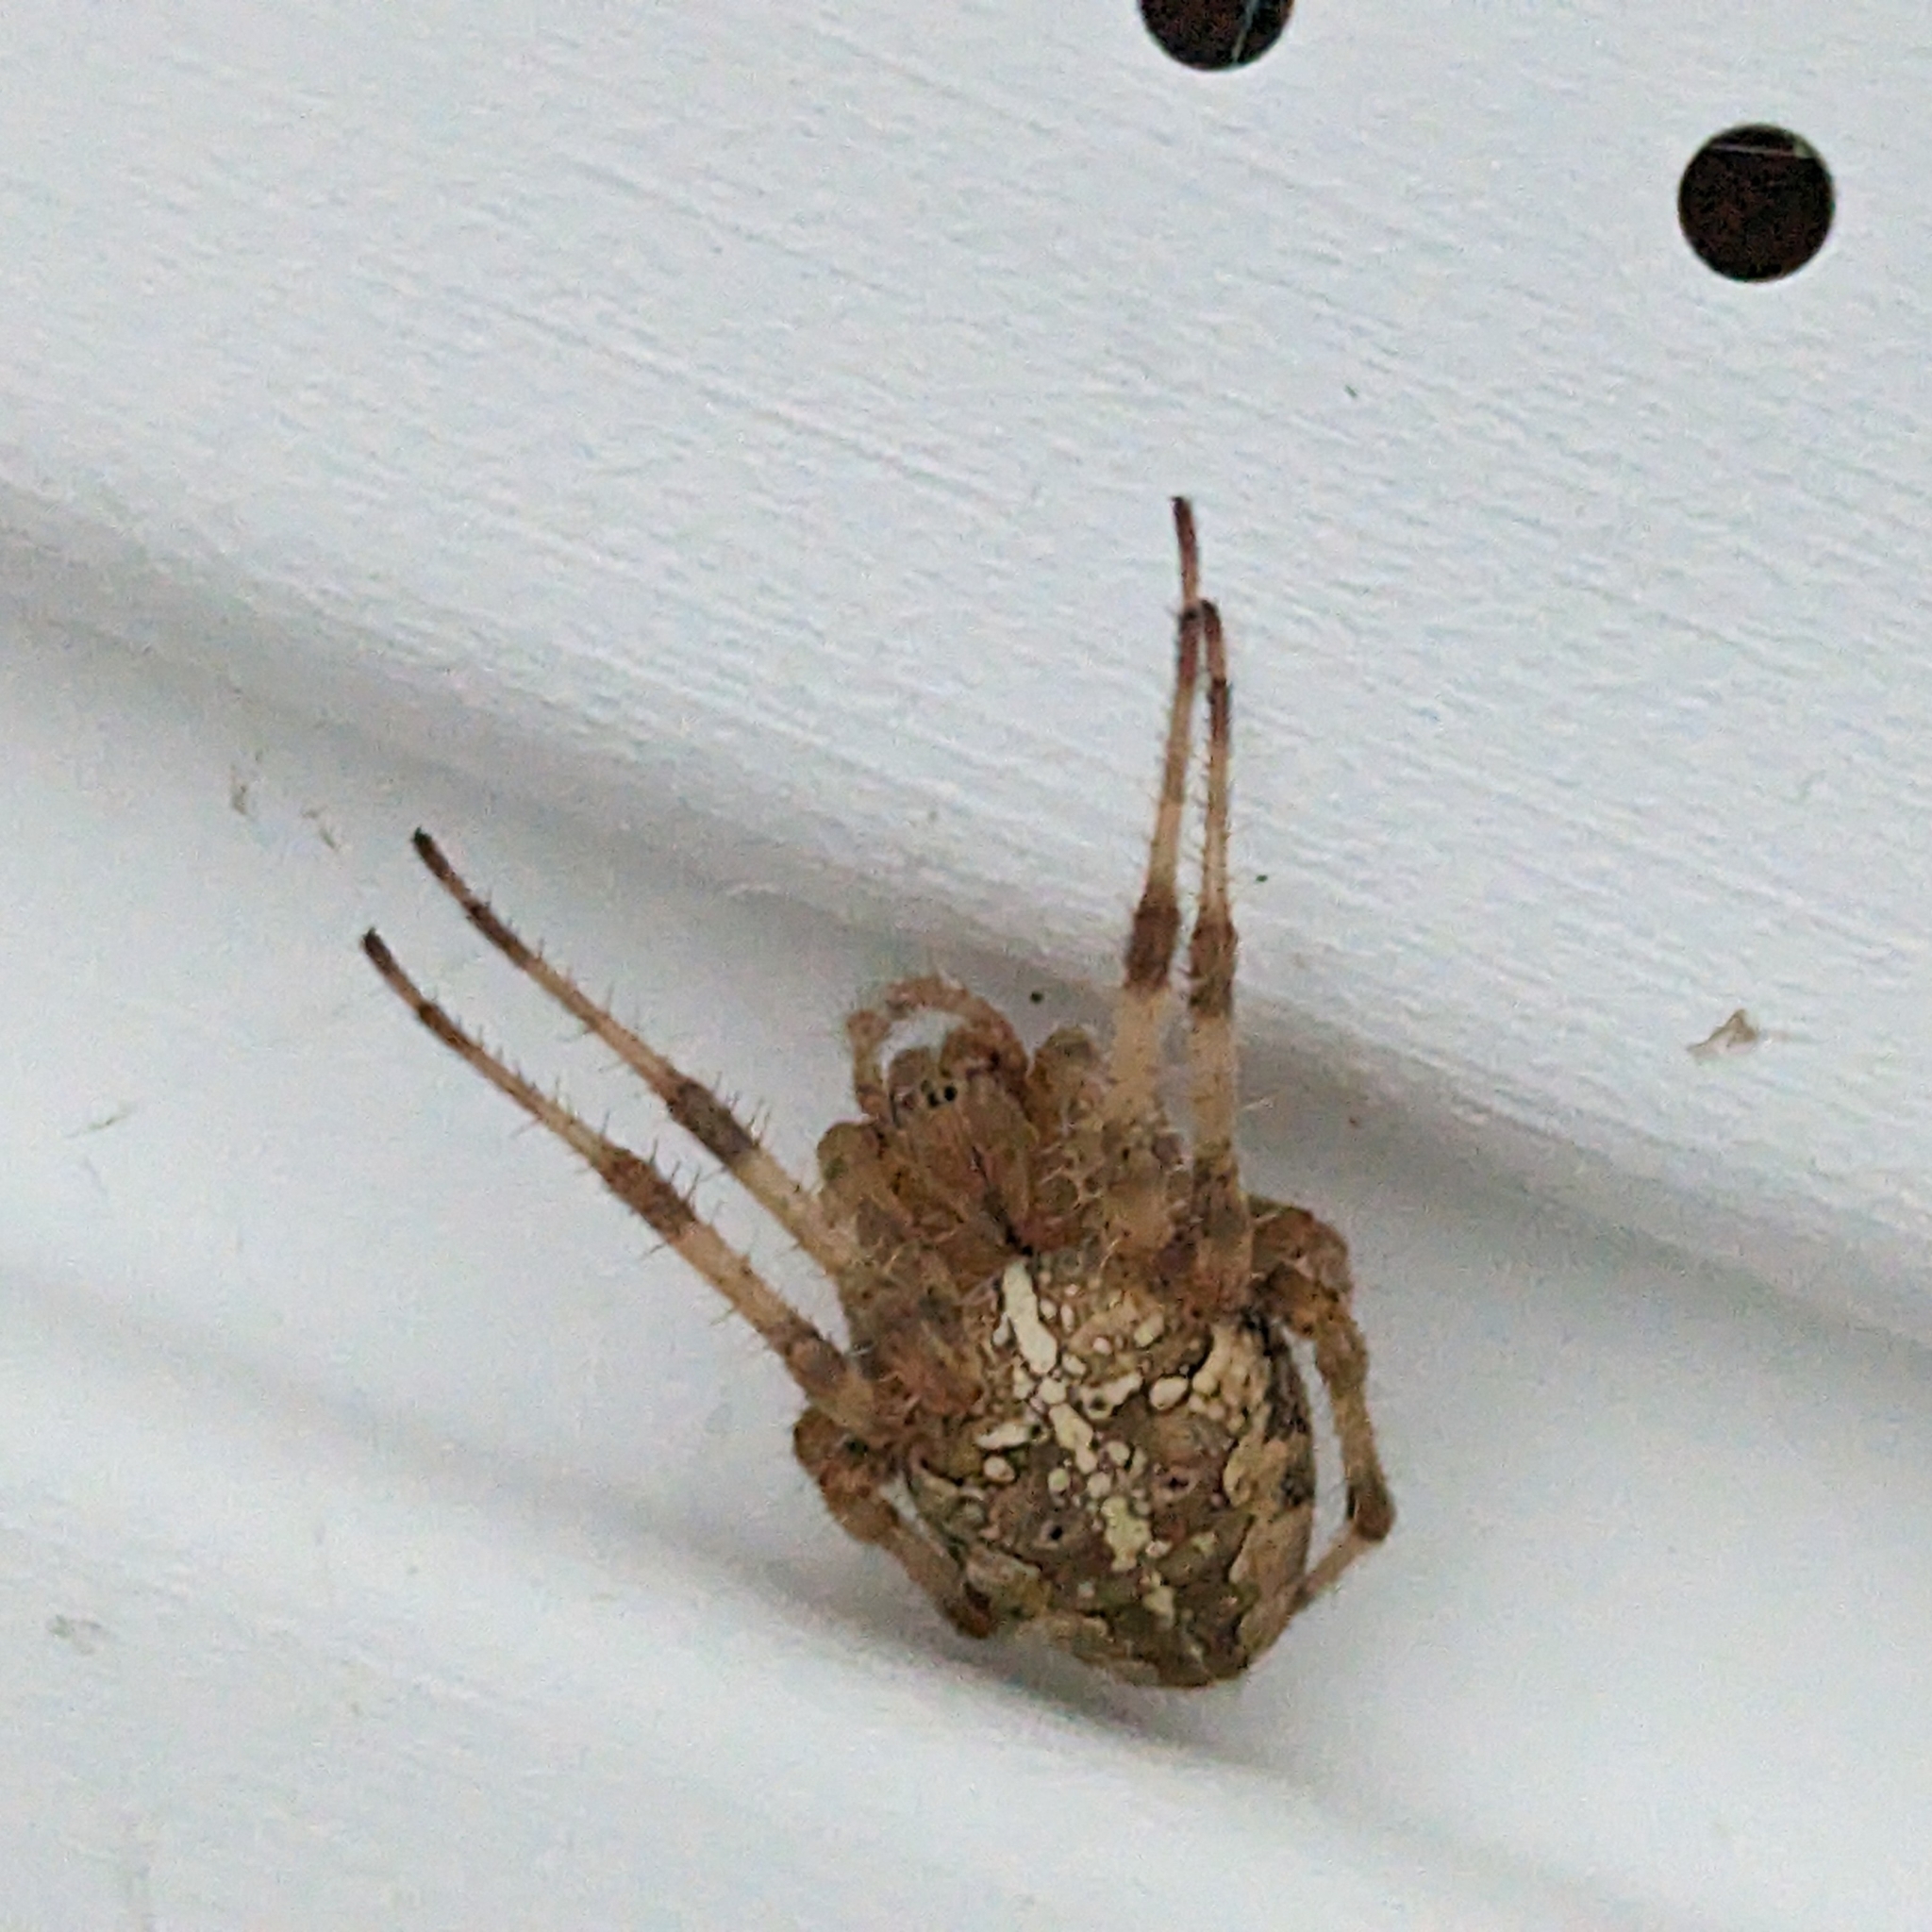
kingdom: Animalia
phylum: Arthropoda
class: Arachnida
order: Araneae
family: Araneidae
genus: Araneus
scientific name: Araneus diadematus
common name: Cross orbweaver
